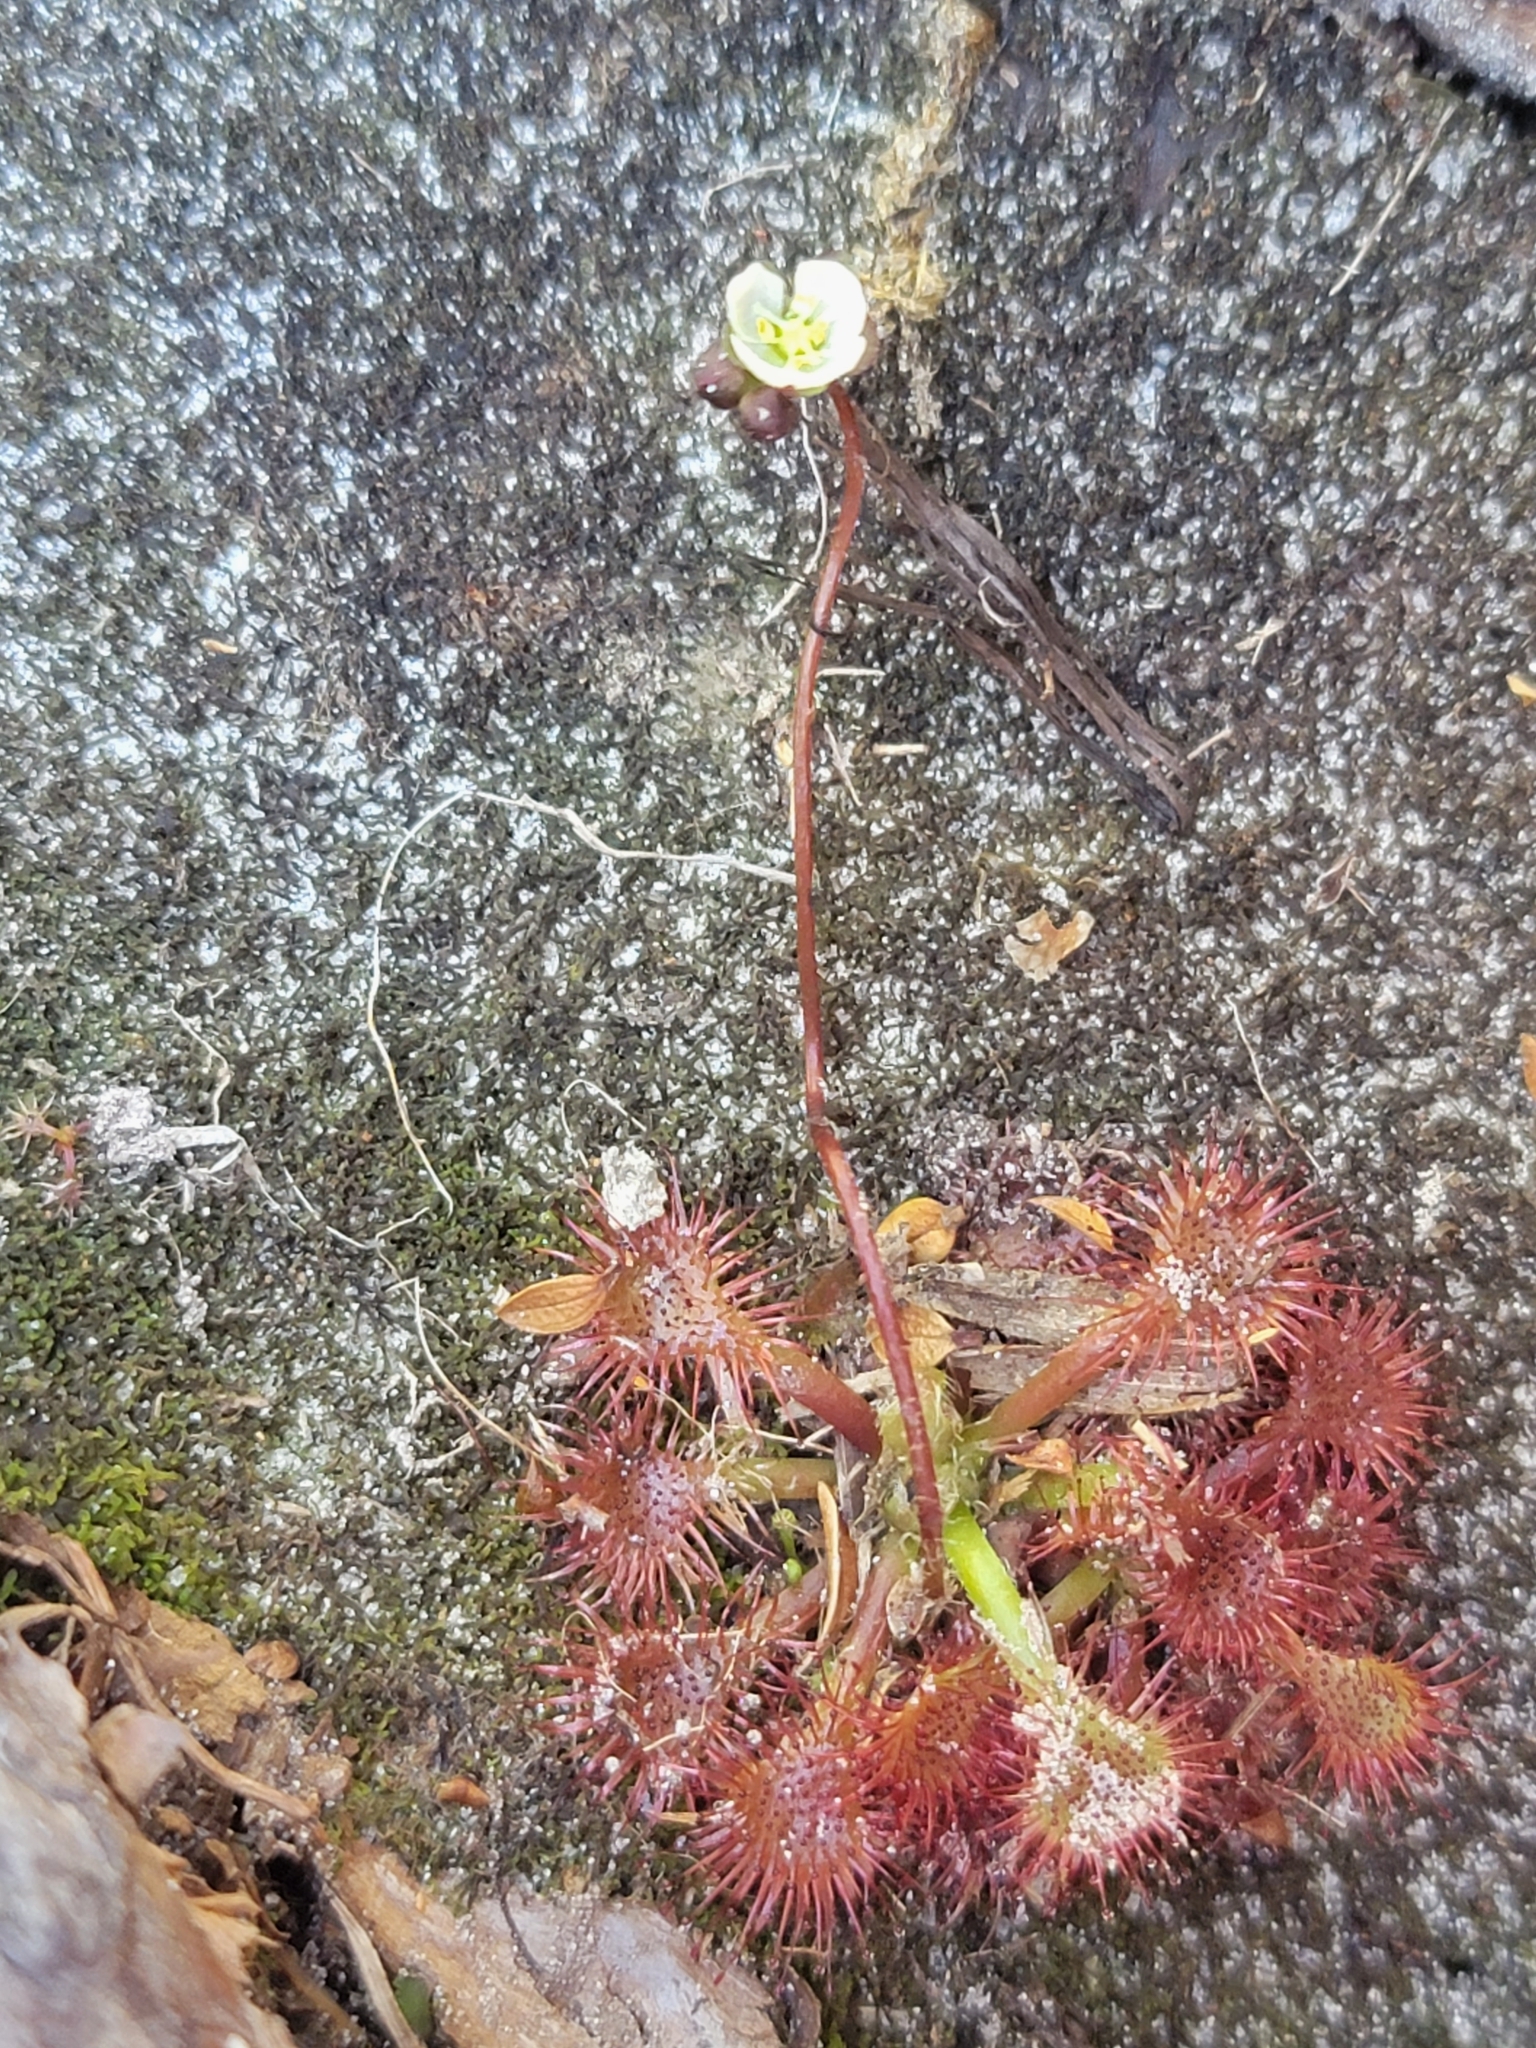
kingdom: Plantae
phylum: Tracheophyta
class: Magnoliopsida
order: Caryophyllales
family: Droseraceae
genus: Drosera
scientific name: Drosera spatulata
